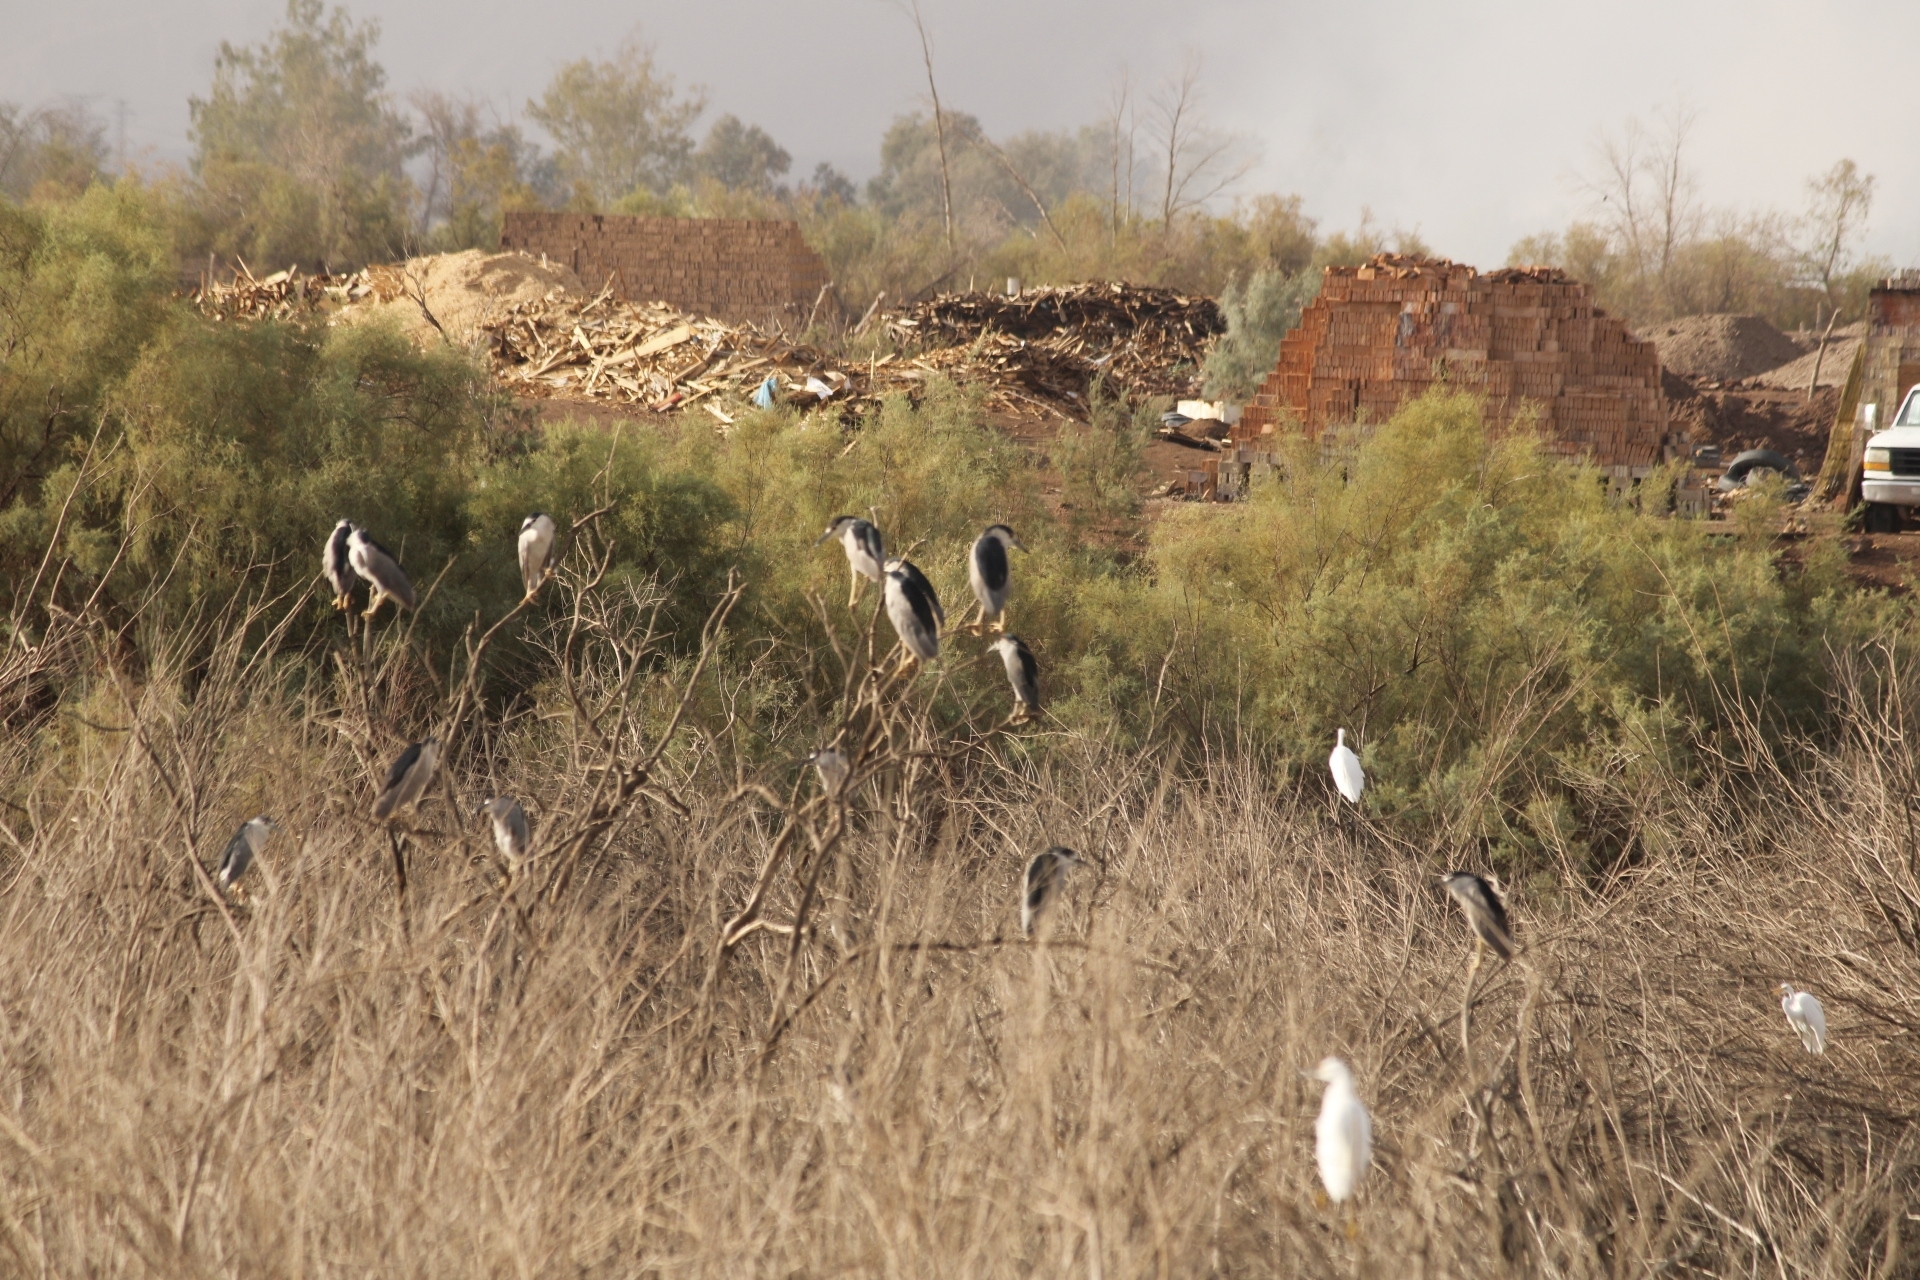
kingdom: Animalia
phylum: Chordata
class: Aves
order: Pelecaniformes
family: Ardeidae
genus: Nycticorax
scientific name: Nycticorax nycticorax
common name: Black-crowned night heron
